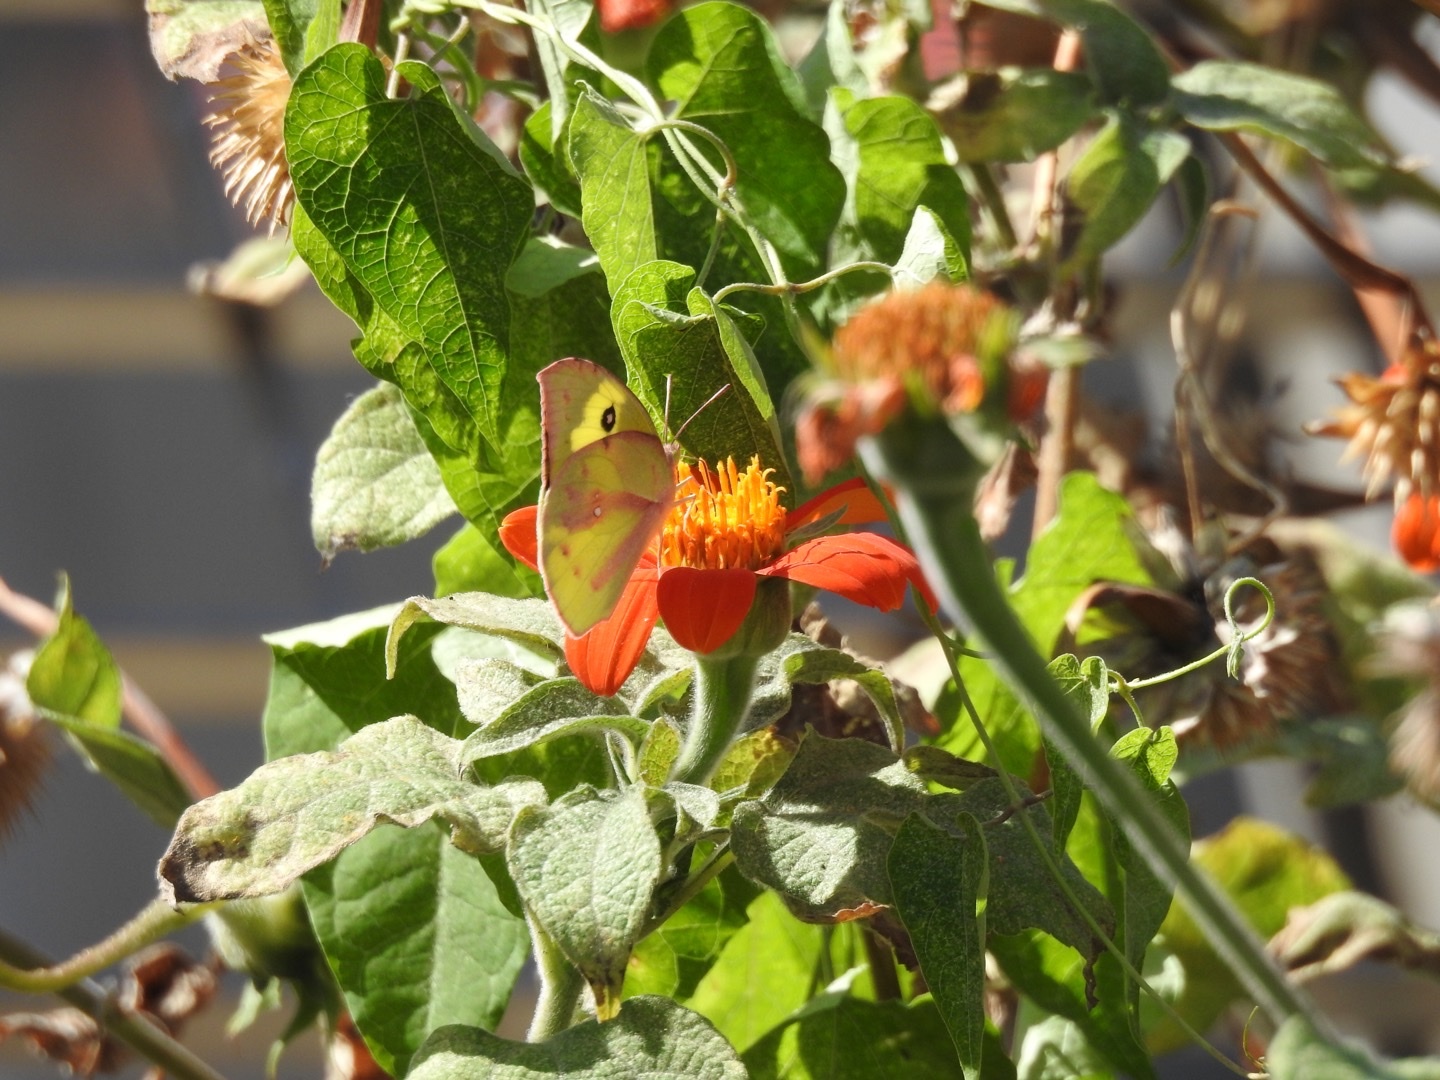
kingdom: Animalia
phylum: Arthropoda
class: Insecta
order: Lepidoptera
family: Pieridae
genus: Zerene
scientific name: Zerene cesonia
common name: Southern dogface
